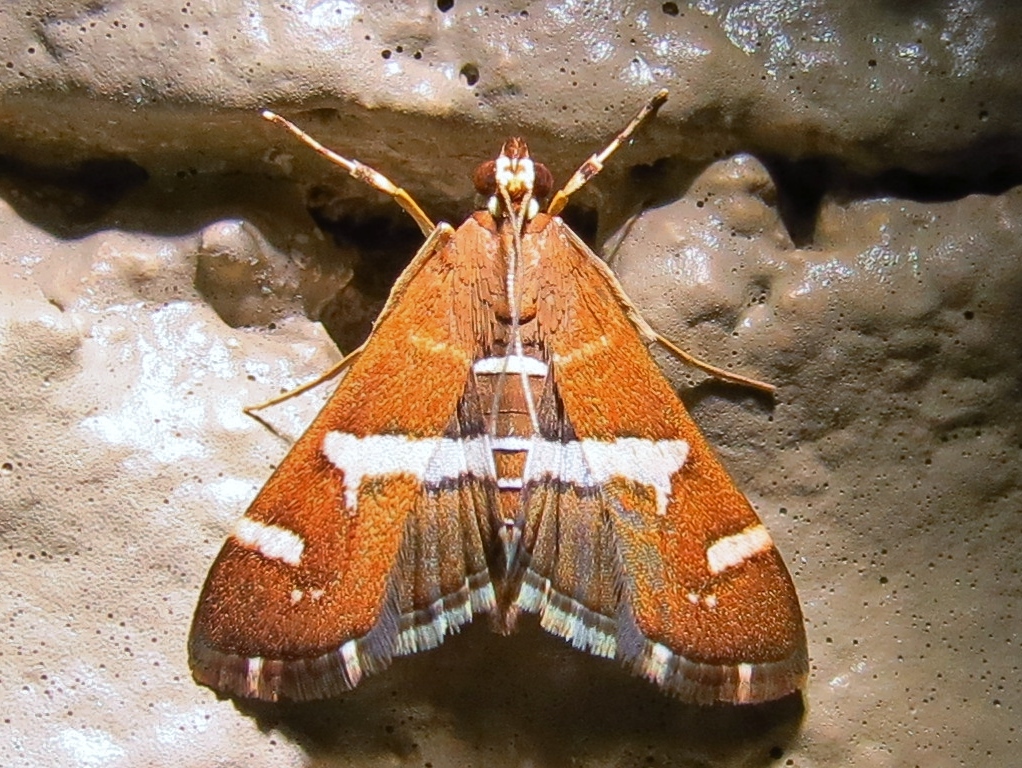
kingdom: Animalia
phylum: Arthropoda
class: Insecta
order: Lepidoptera
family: Crambidae
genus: Spoladea
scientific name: Spoladea recurvalis
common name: Beet webworm moth
